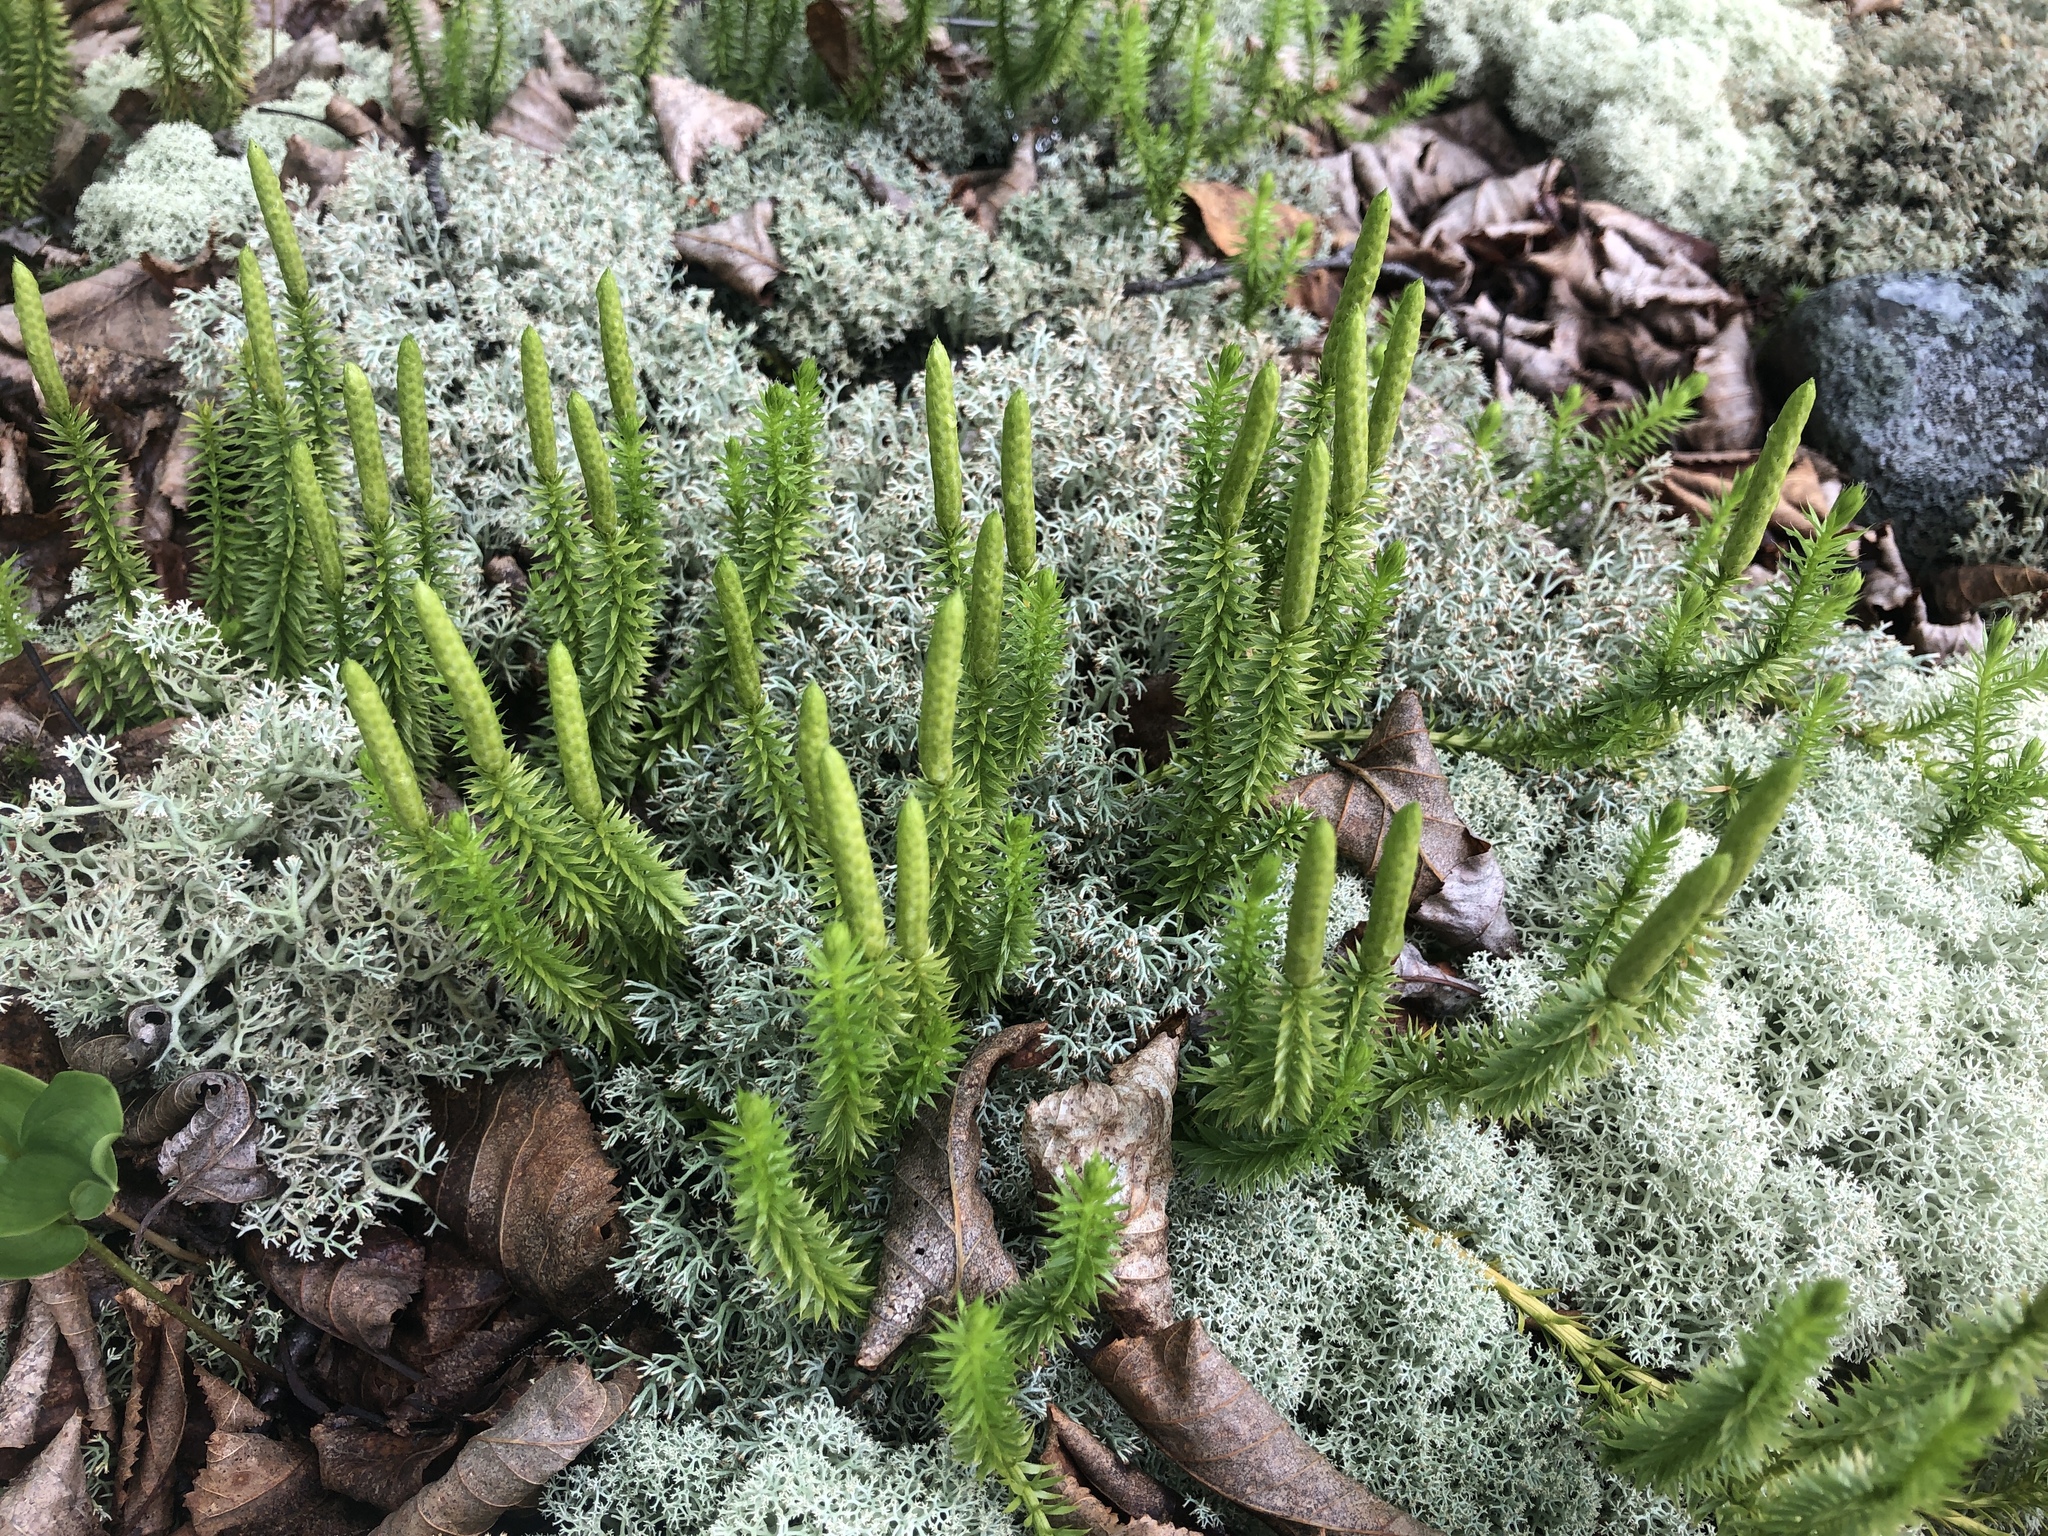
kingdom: Plantae
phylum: Tracheophyta
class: Lycopodiopsida
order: Lycopodiales
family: Lycopodiaceae
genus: Spinulum
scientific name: Spinulum annotinum
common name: Interrupted club-moss
